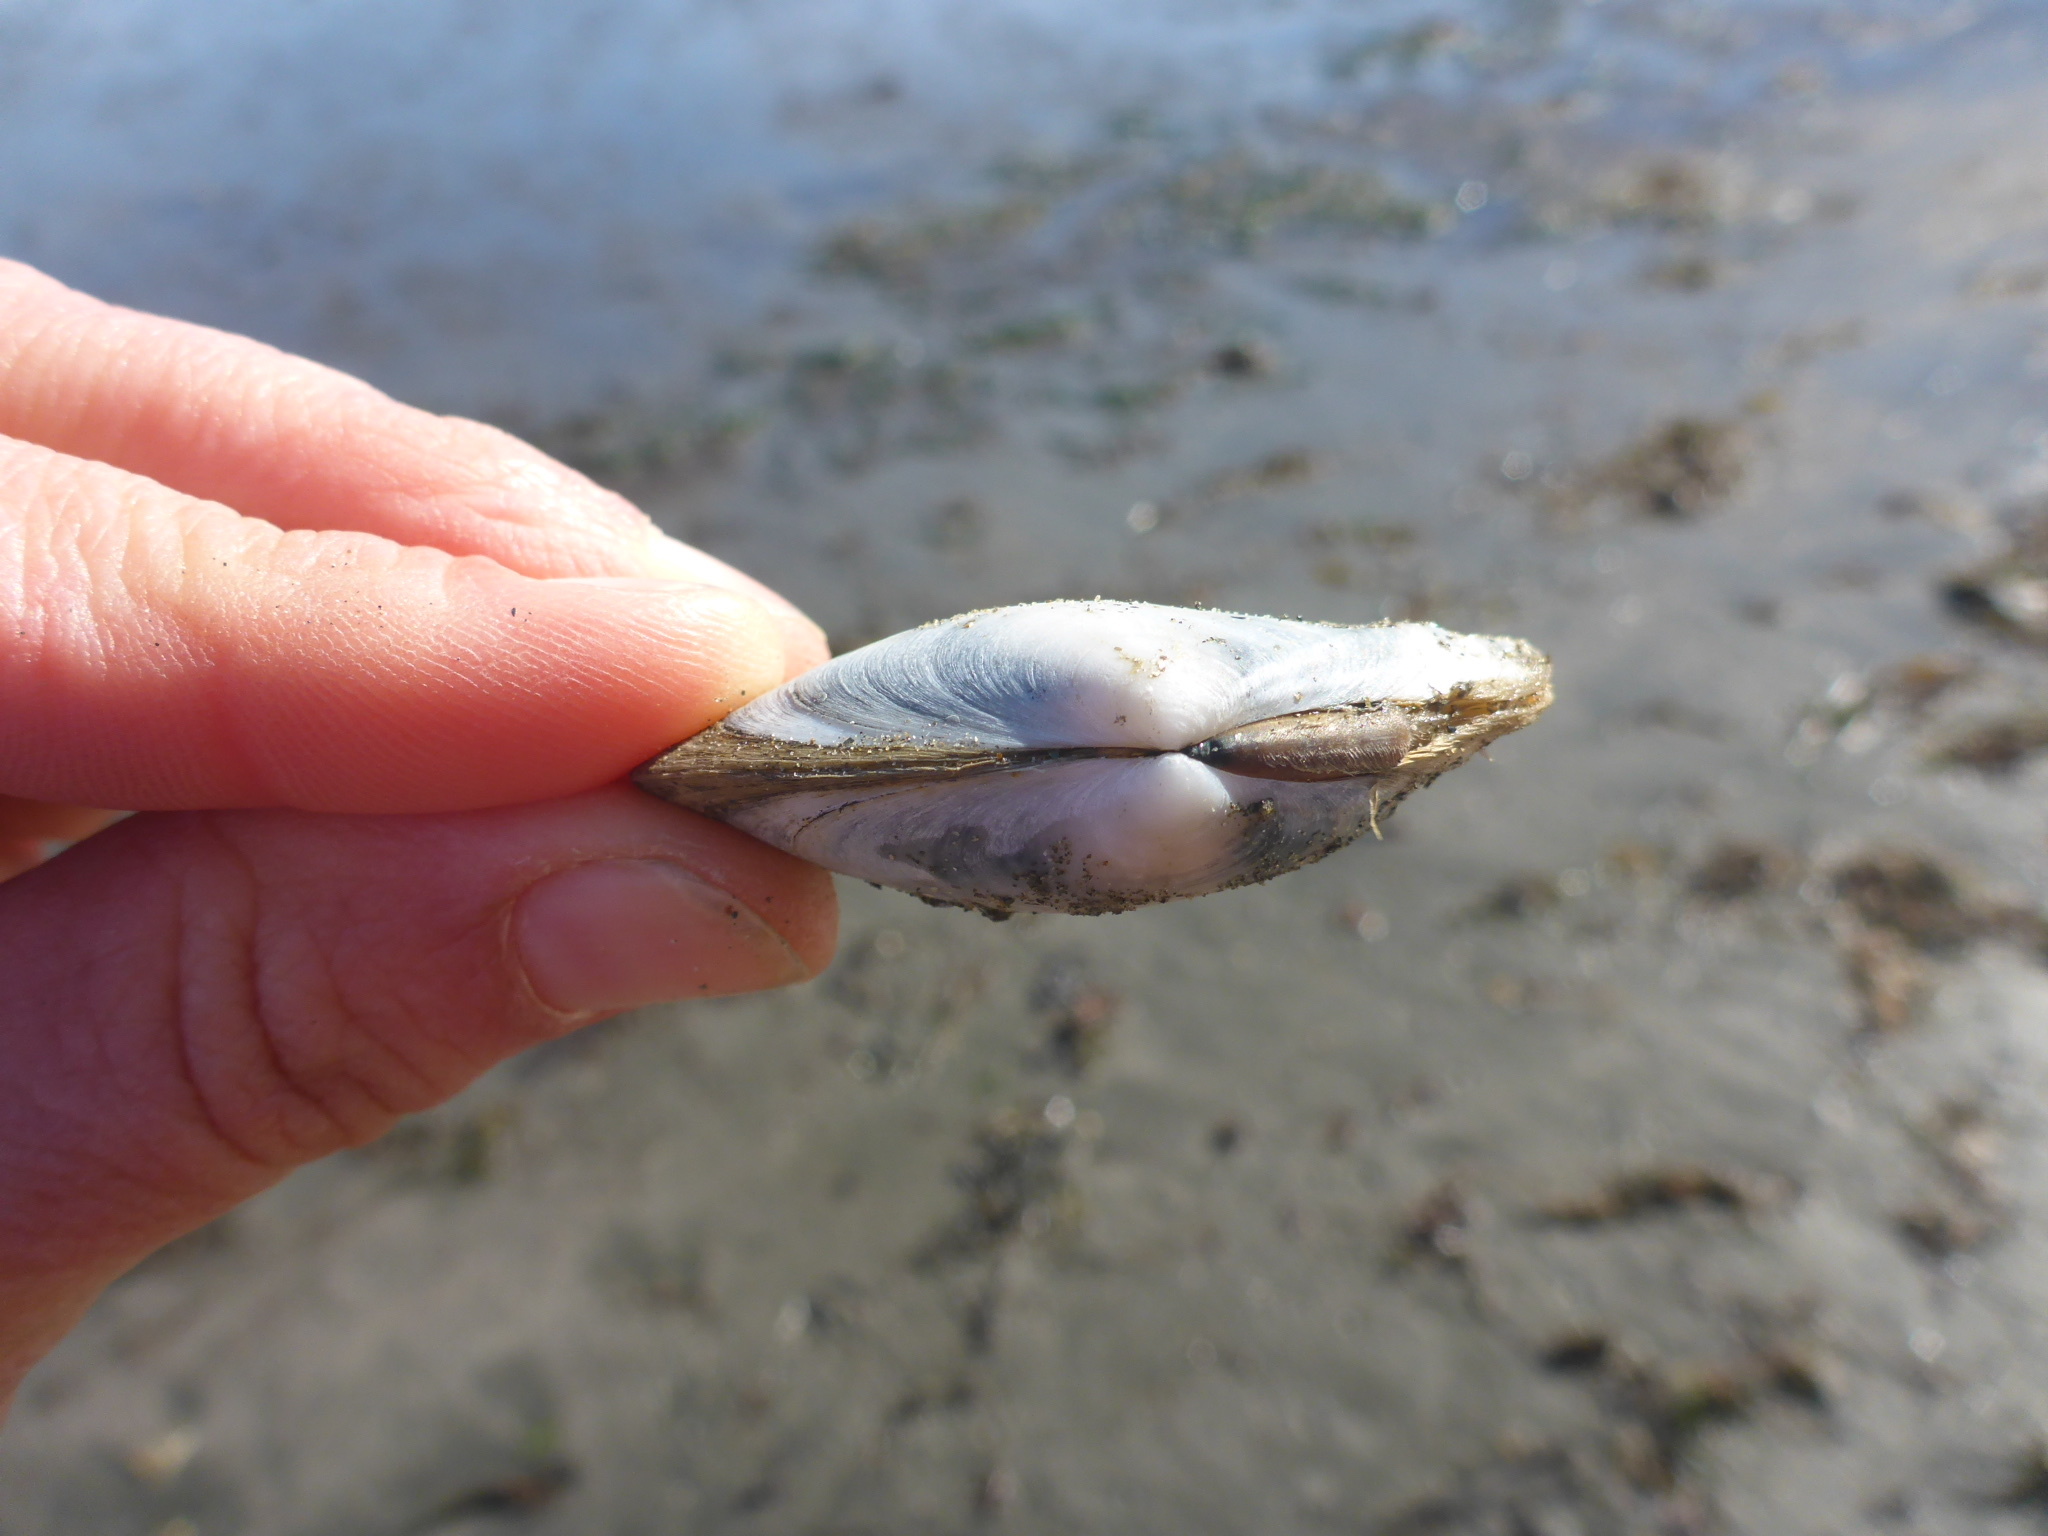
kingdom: Animalia
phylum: Mollusca
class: Bivalvia
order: Cardiida
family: Tellinidae
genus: Macoma
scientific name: Macoma nasuta
